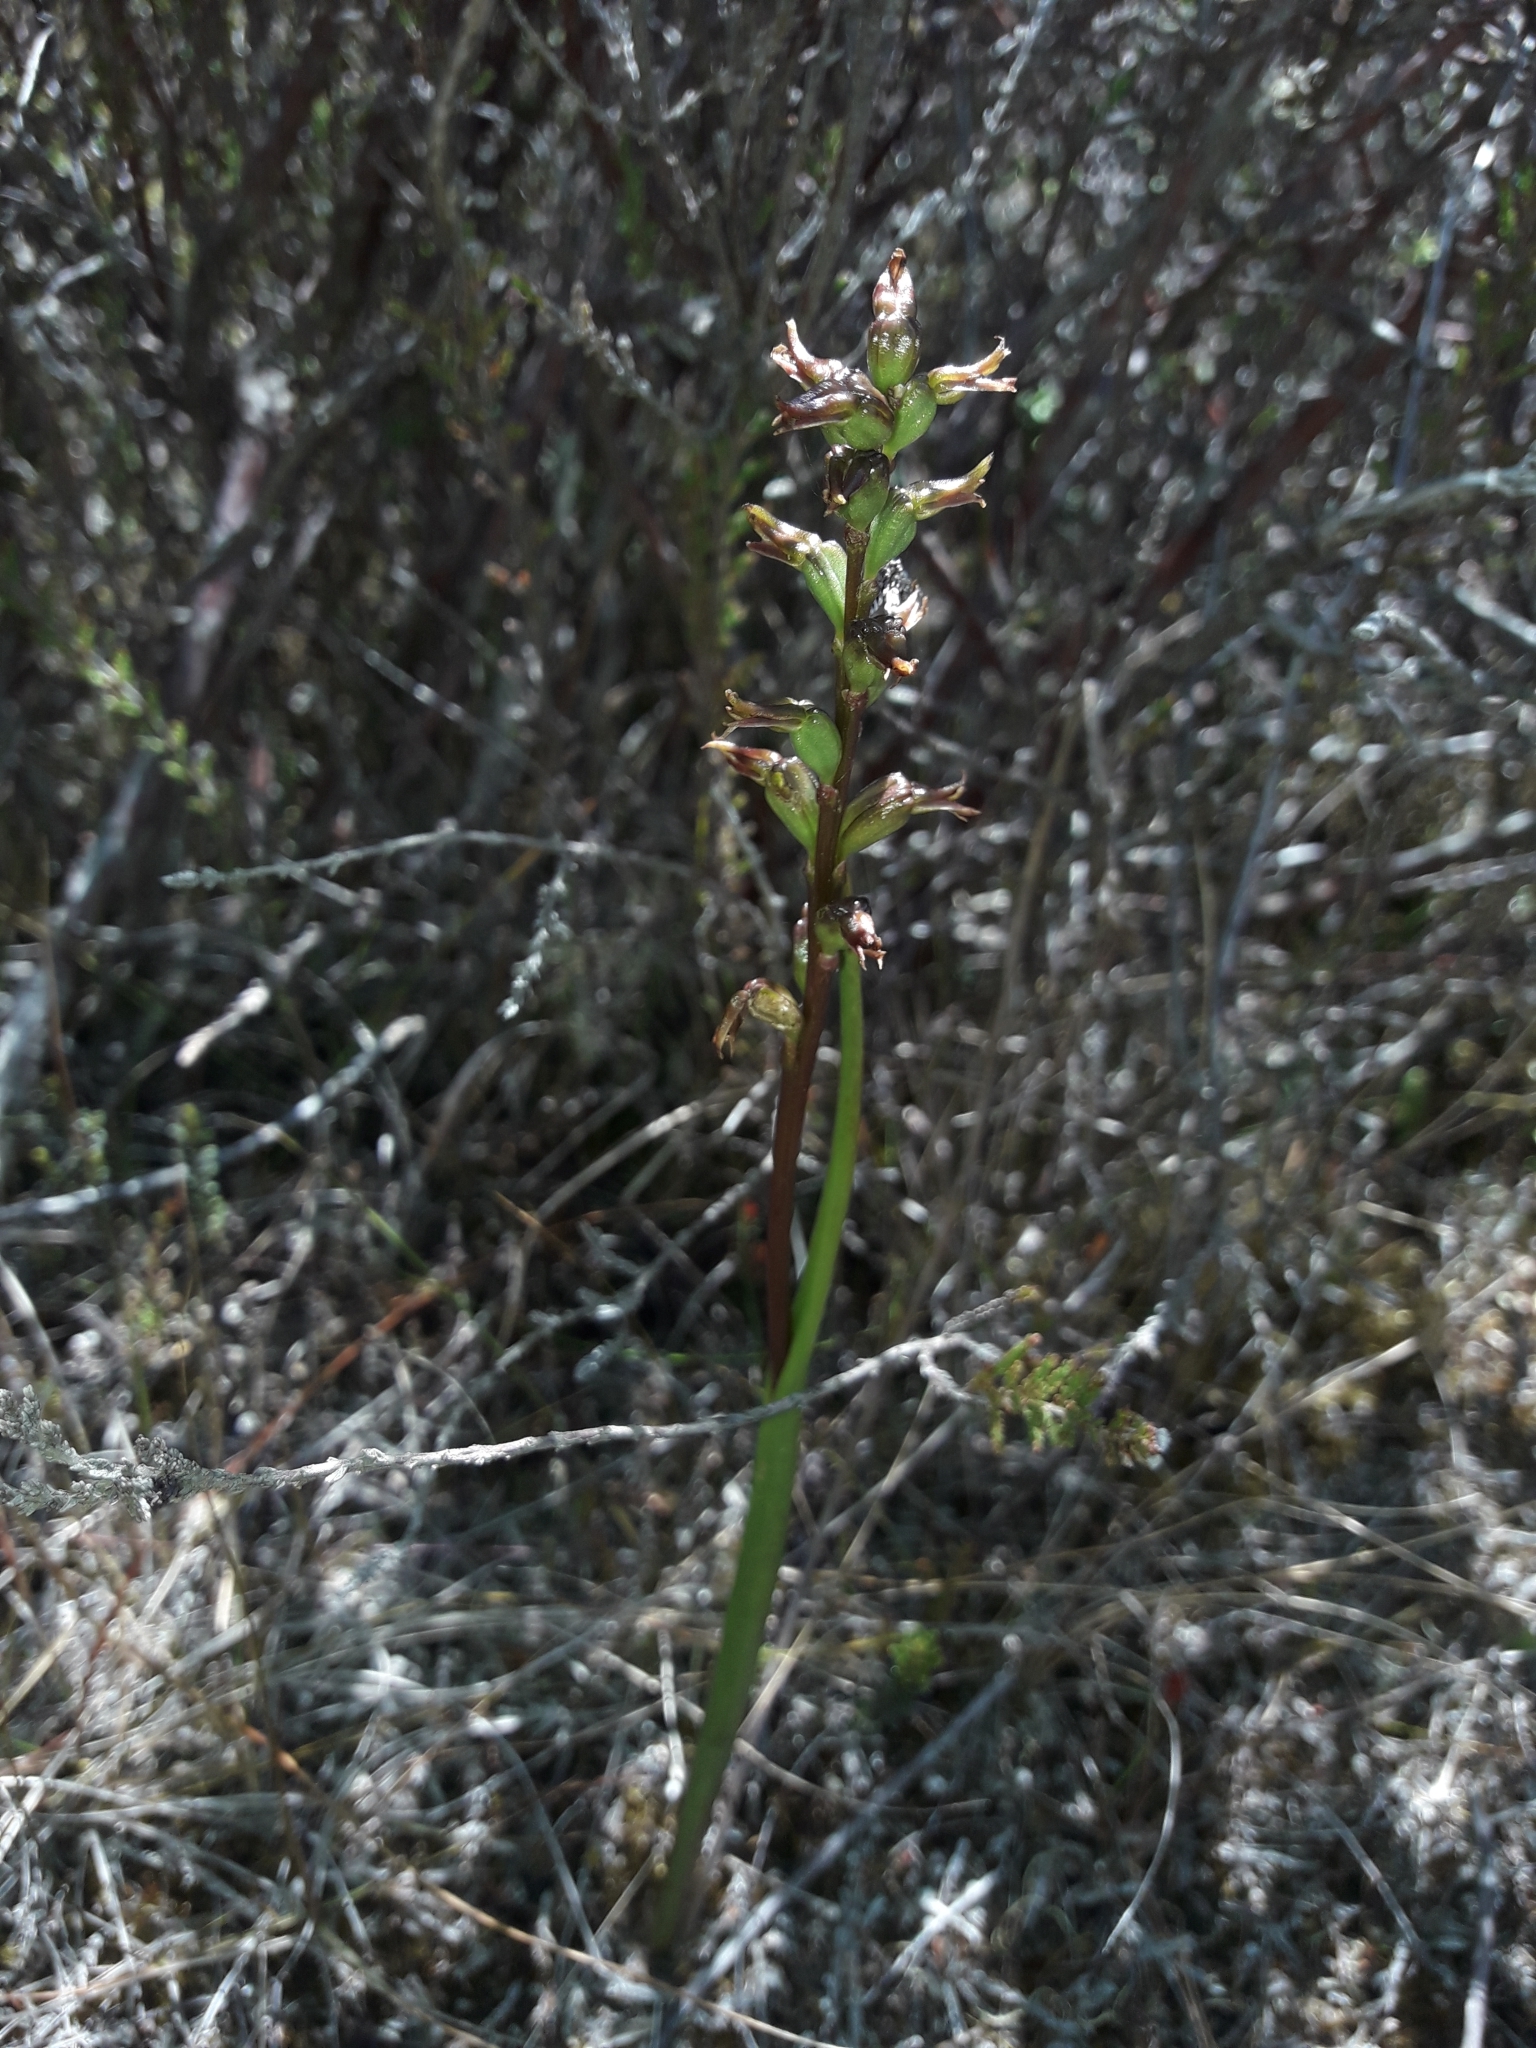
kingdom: Plantae
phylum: Tracheophyta
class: Liliopsida
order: Asparagales
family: Orchidaceae
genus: Prasophyllum
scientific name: Prasophyllum colensoi
